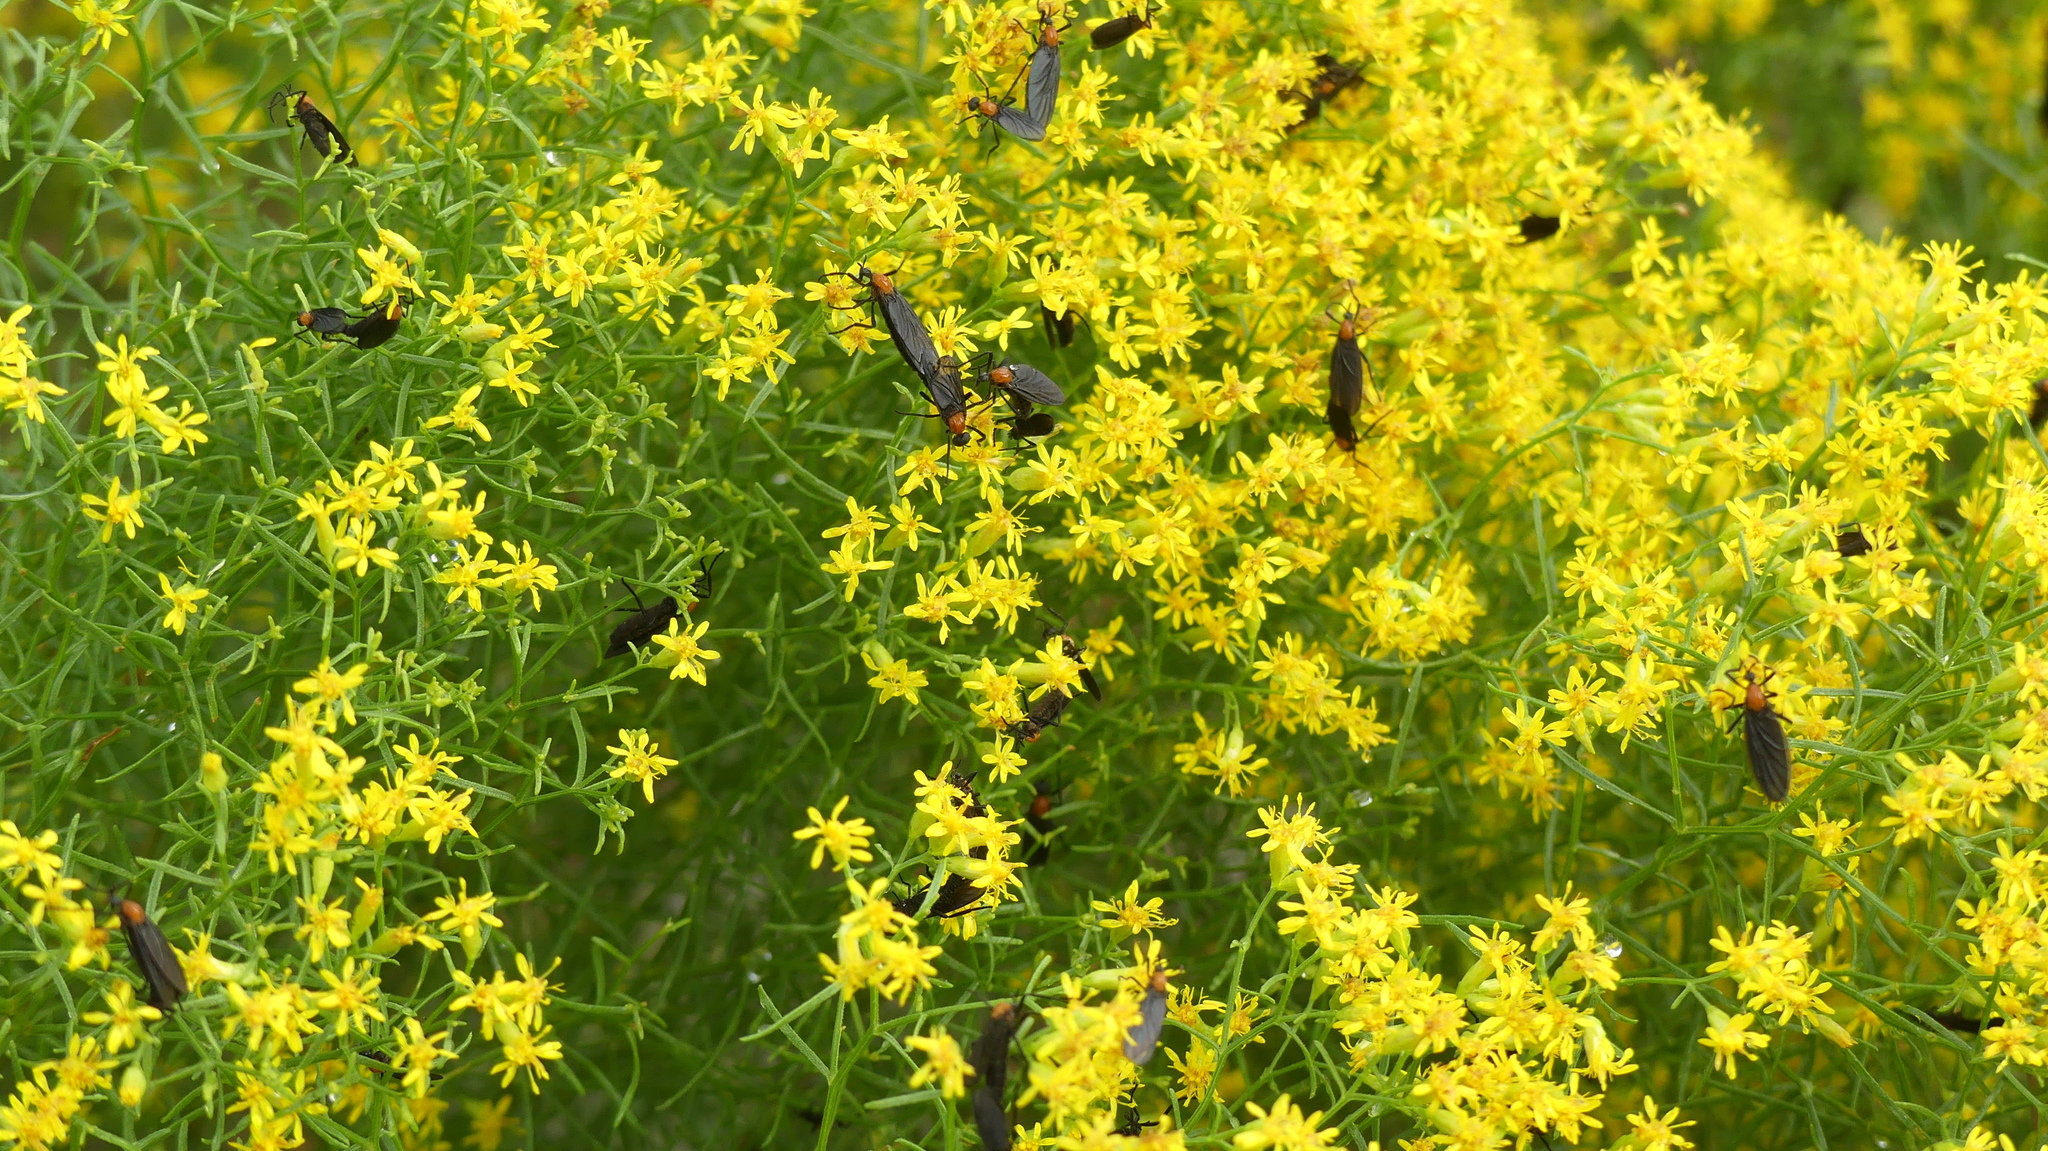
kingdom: Animalia
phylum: Arthropoda
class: Insecta
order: Diptera
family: Bibionidae
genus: Plecia
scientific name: Plecia nearctica
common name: March fly
